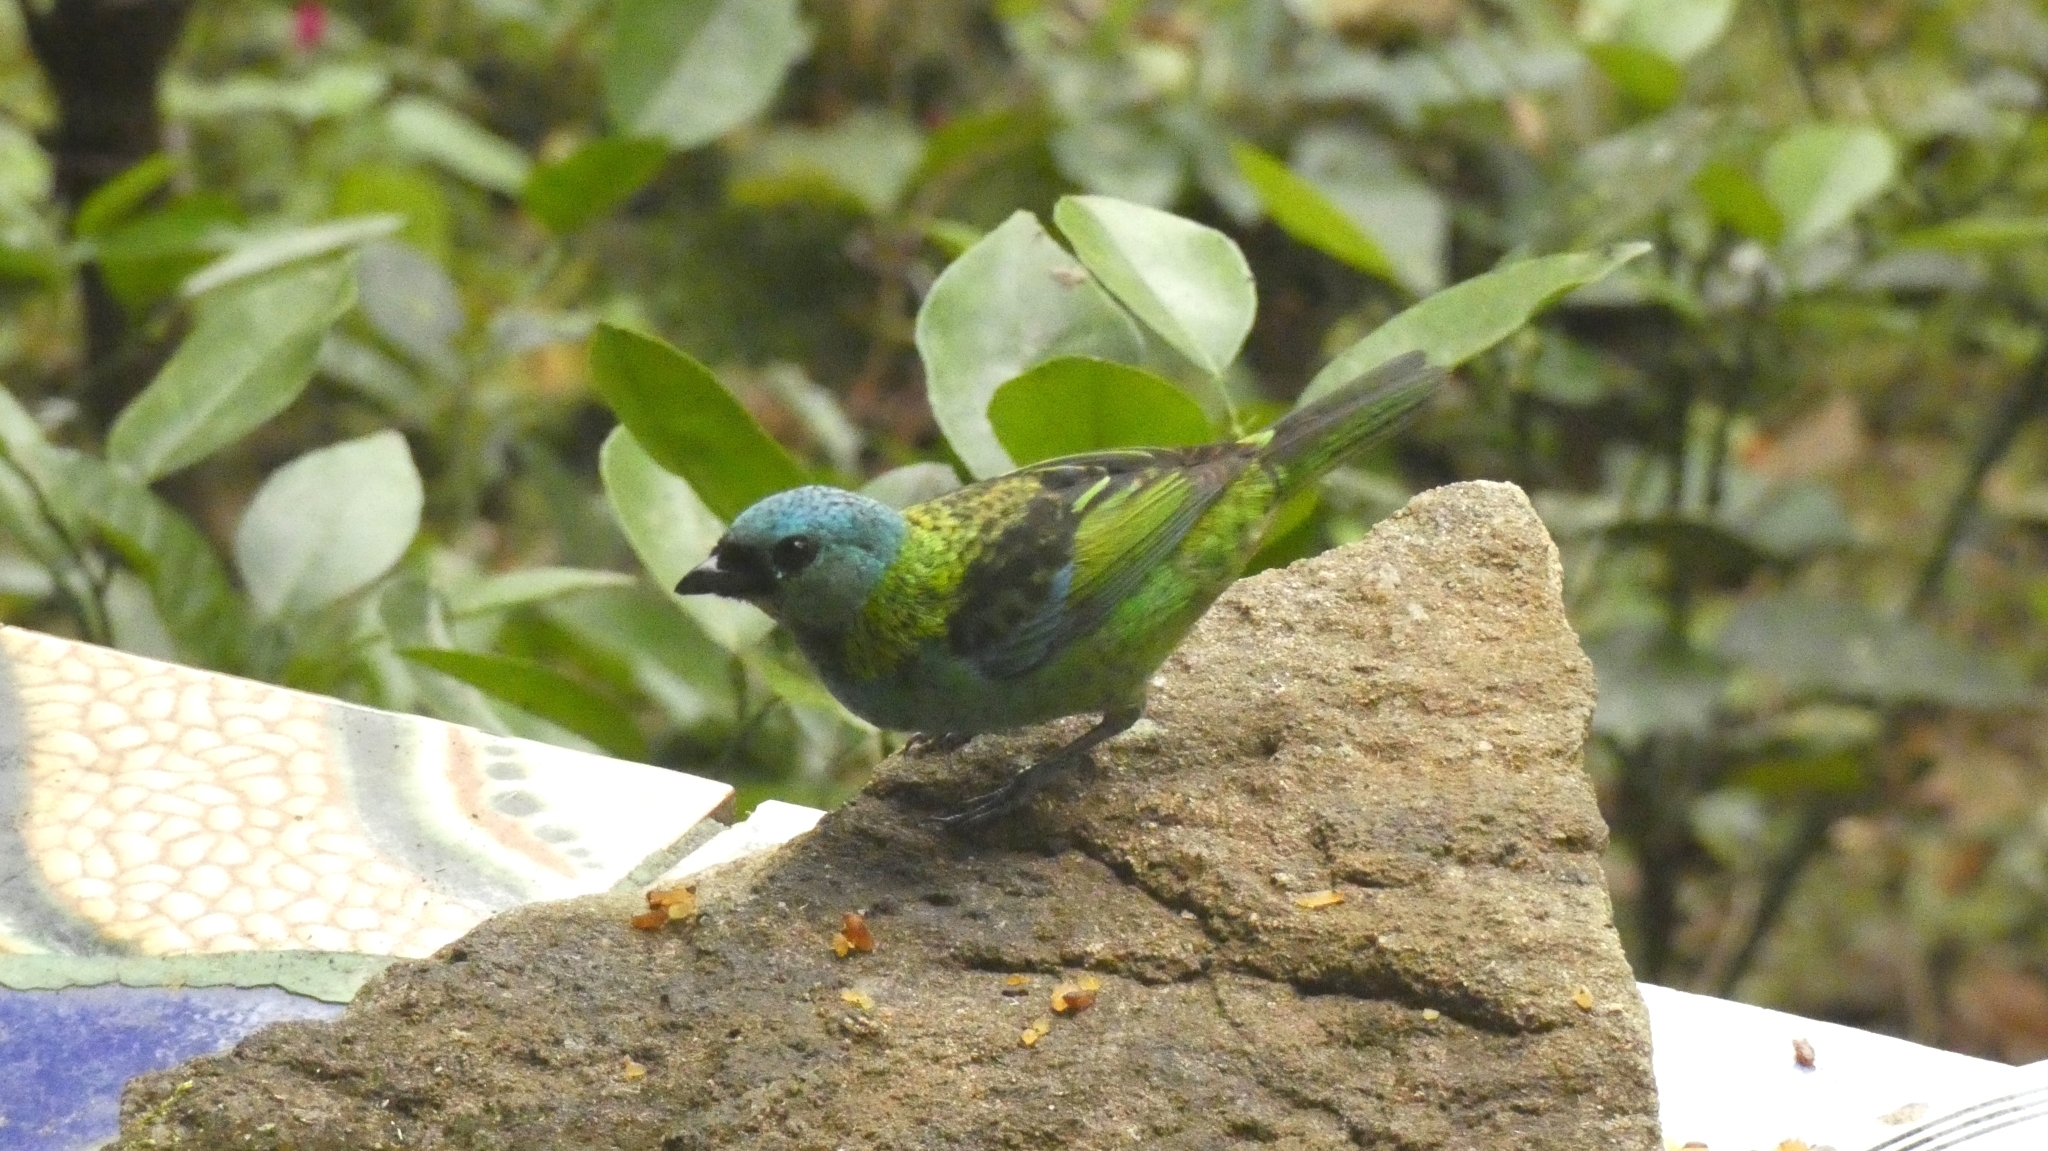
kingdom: Animalia
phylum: Chordata
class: Aves
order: Passeriformes
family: Thraupidae
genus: Tangara
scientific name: Tangara seledon
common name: Green-headed tanager
